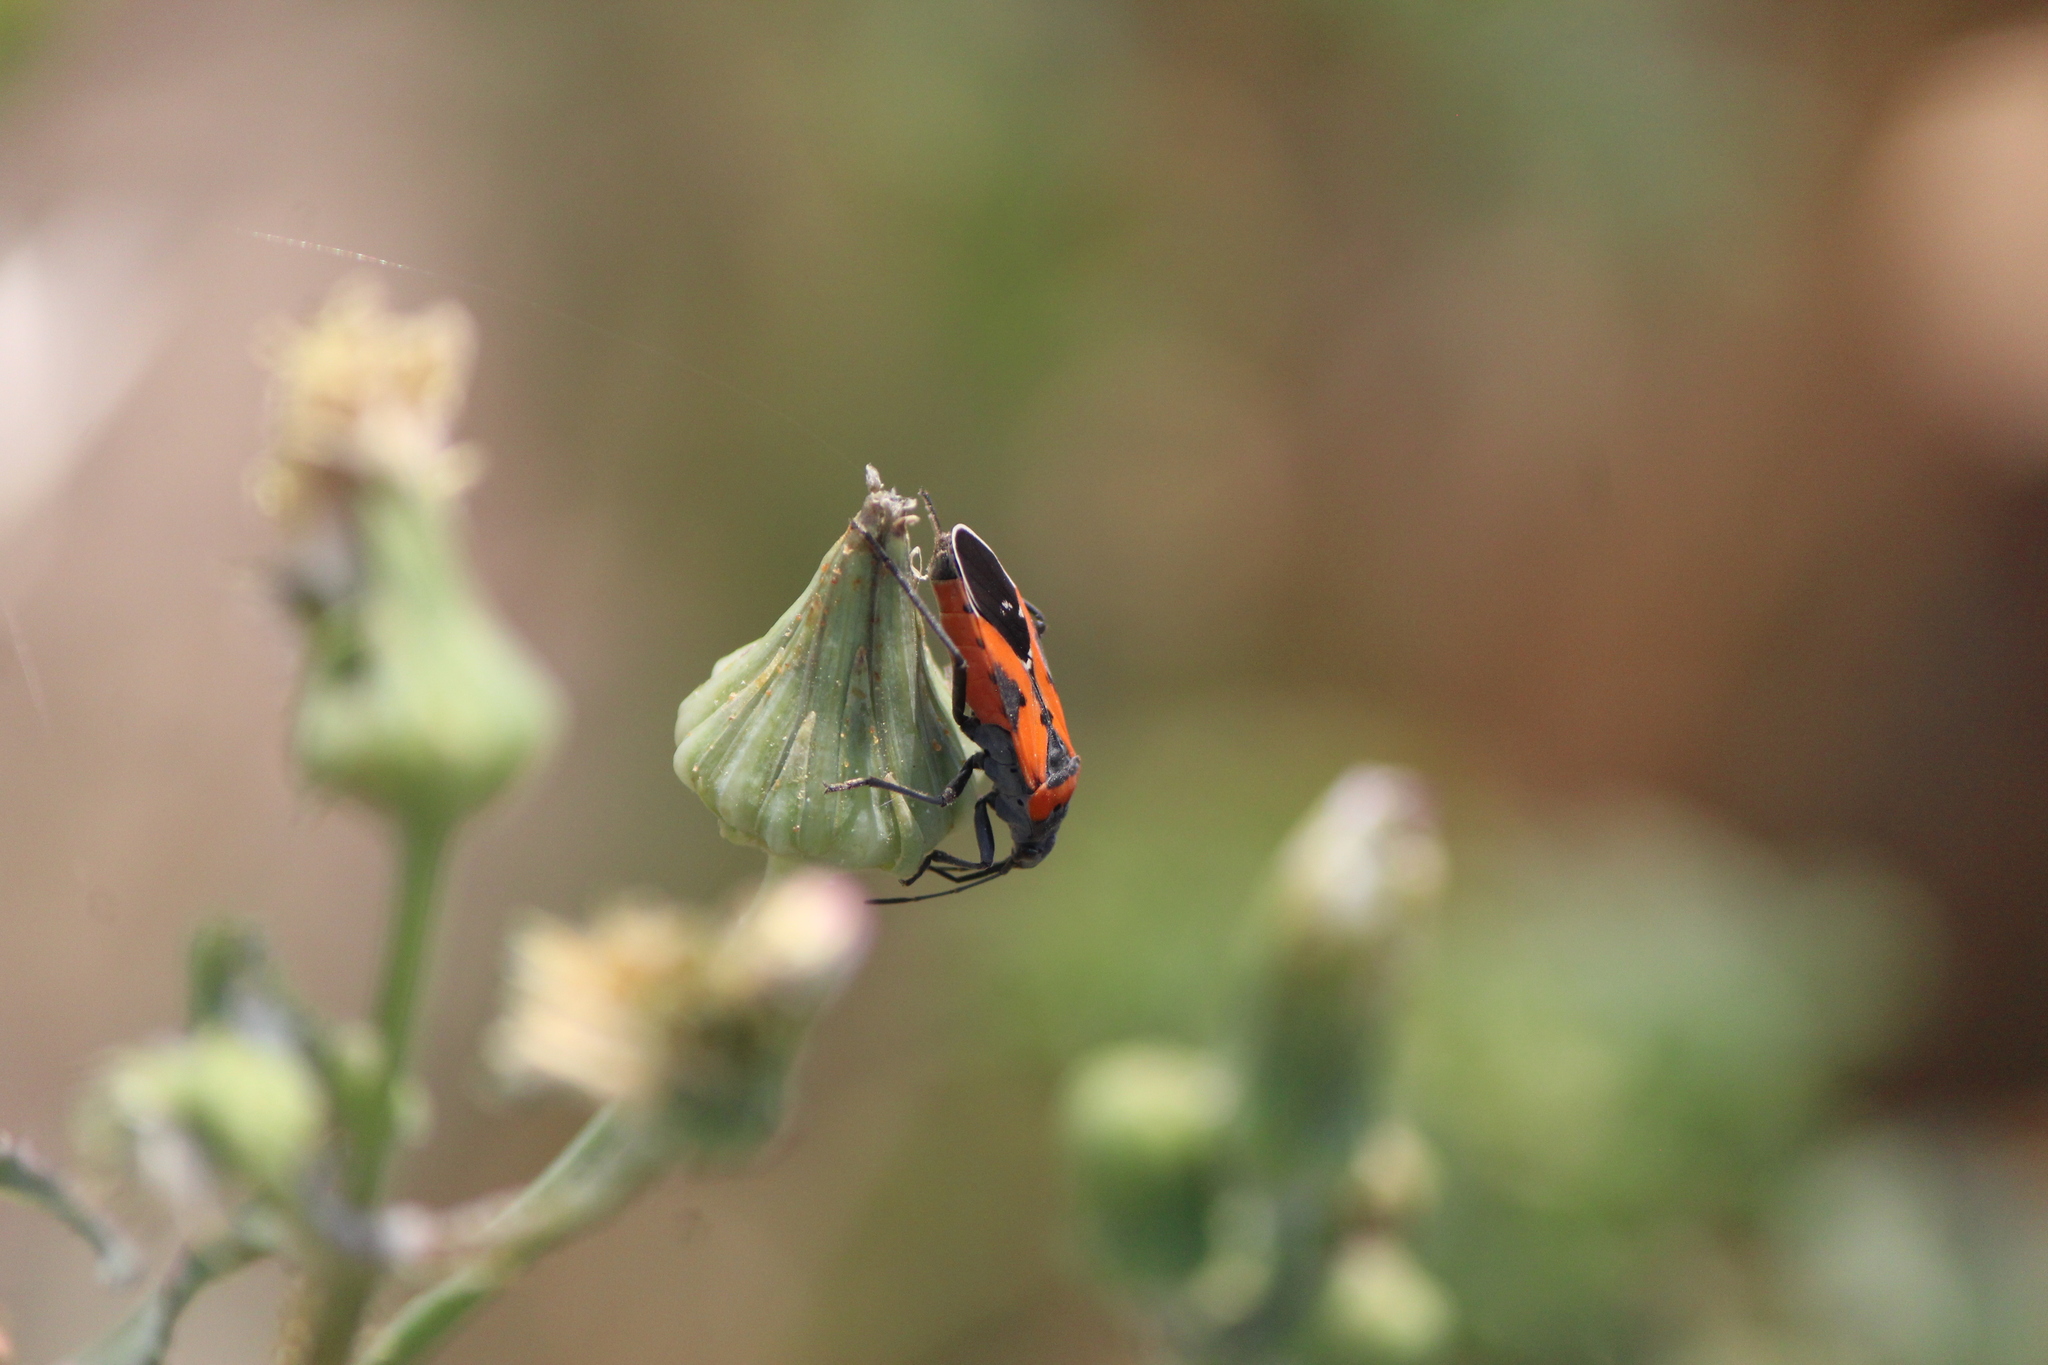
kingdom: Animalia
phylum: Arthropoda
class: Insecta
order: Hemiptera
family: Lygaeidae
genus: Lygaeus
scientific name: Lygaeus reclivatus
